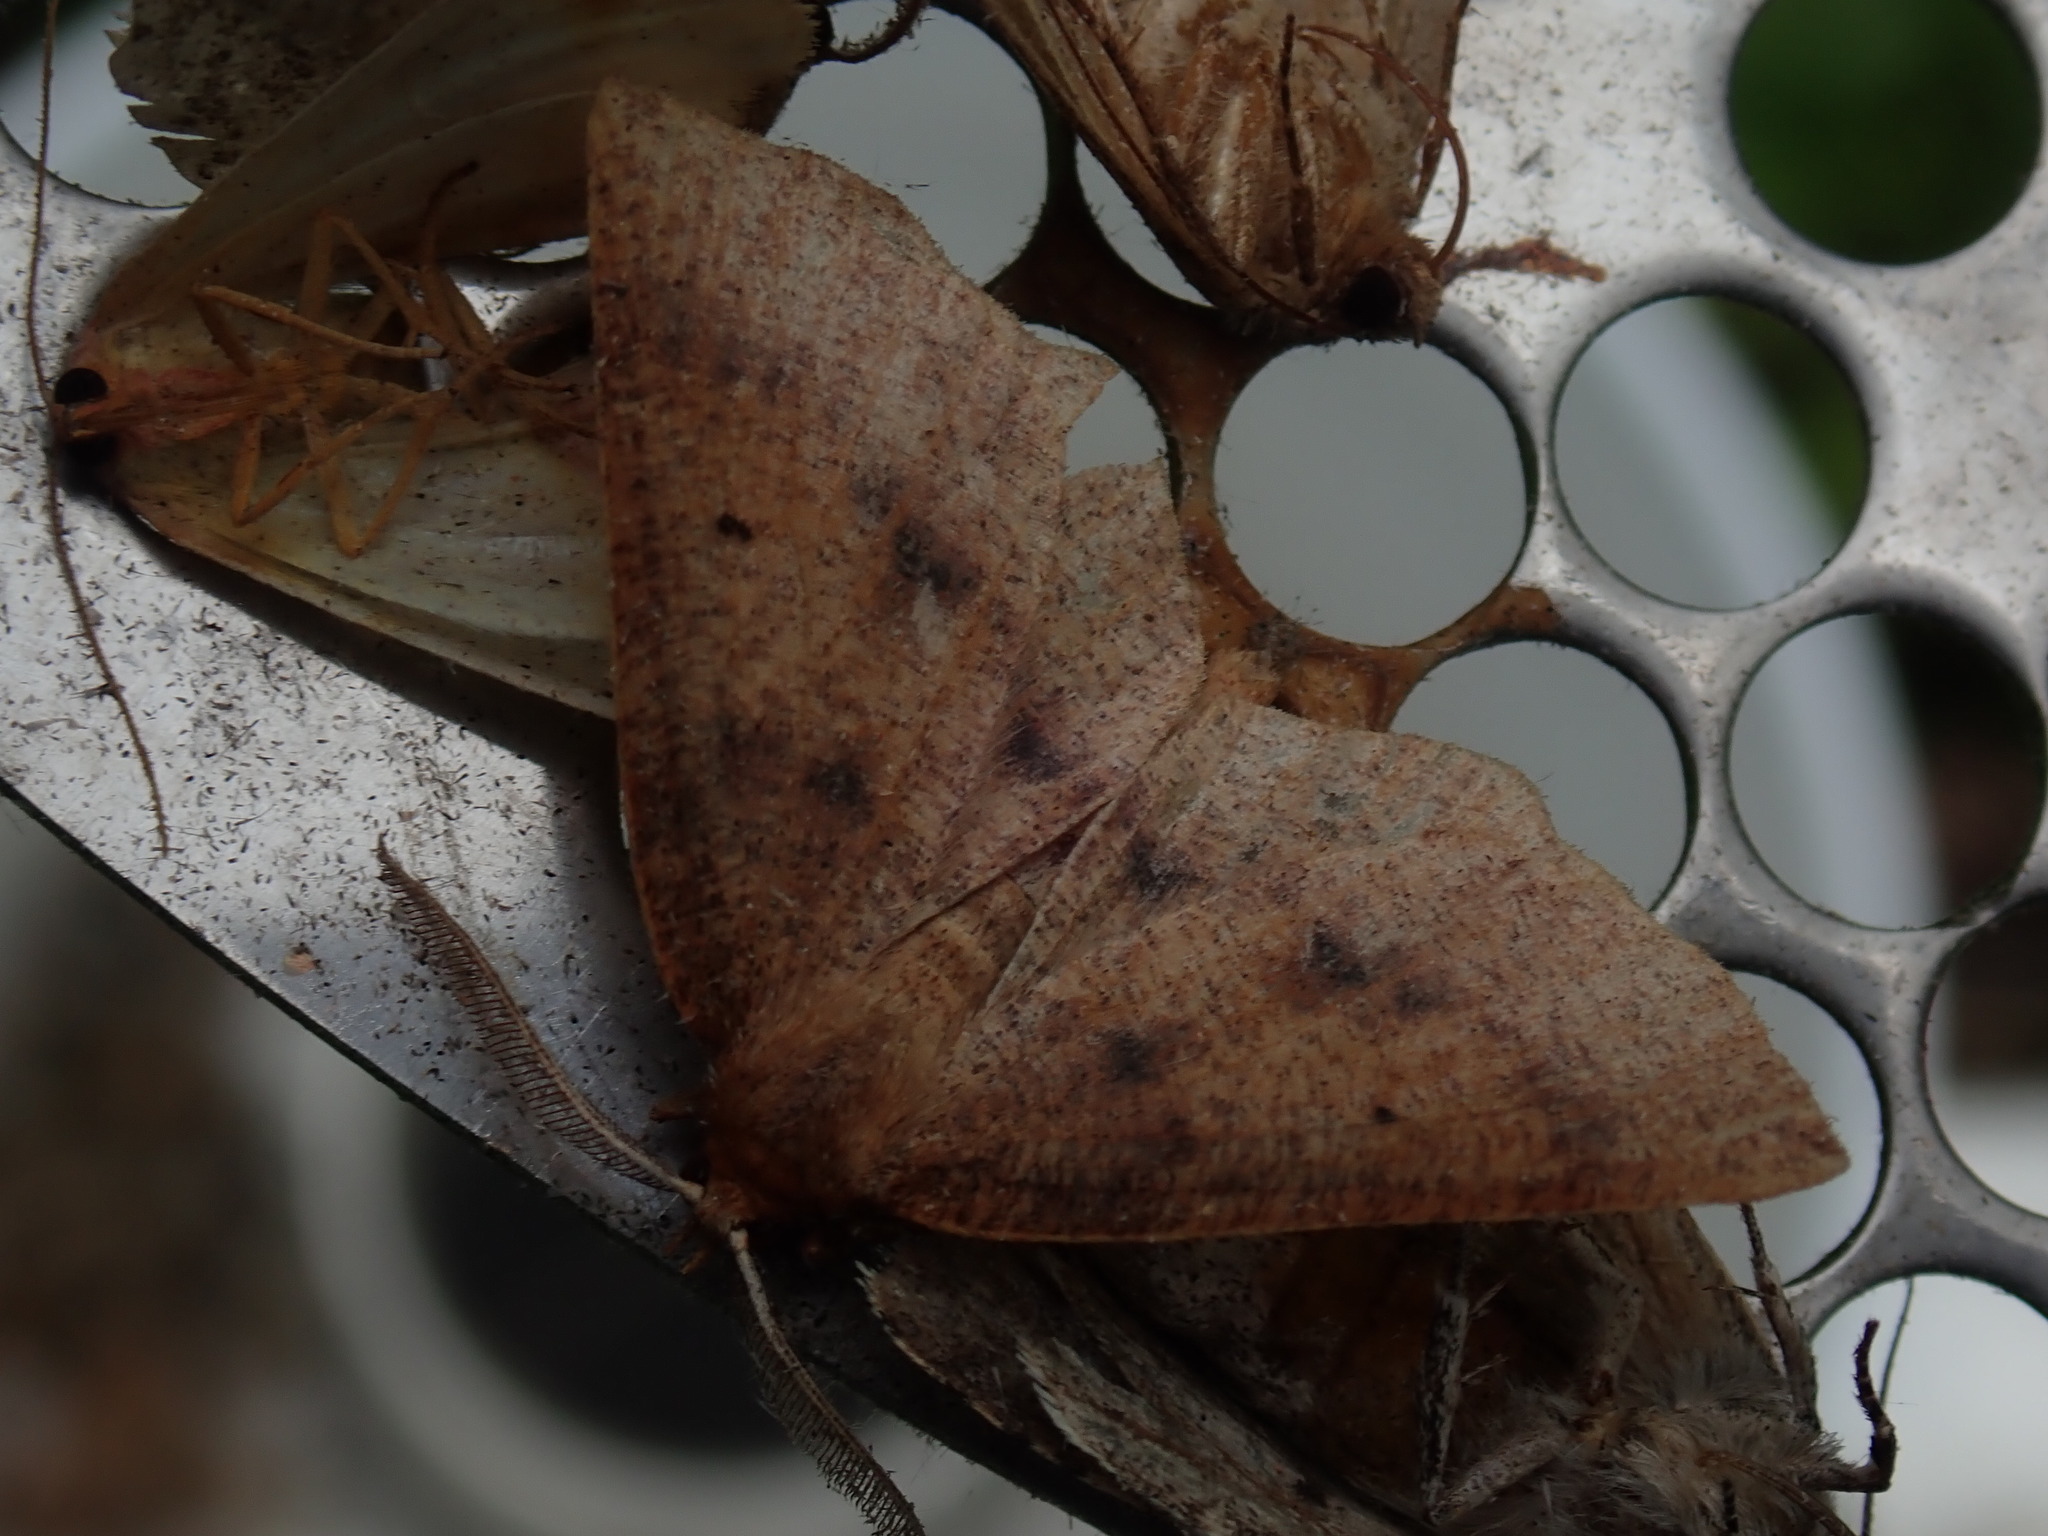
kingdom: Animalia
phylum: Arthropoda
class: Insecta
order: Lepidoptera
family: Geometridae
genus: Metarranthis
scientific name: Metarranthis duaria
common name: Ruddy metarranthis moth
